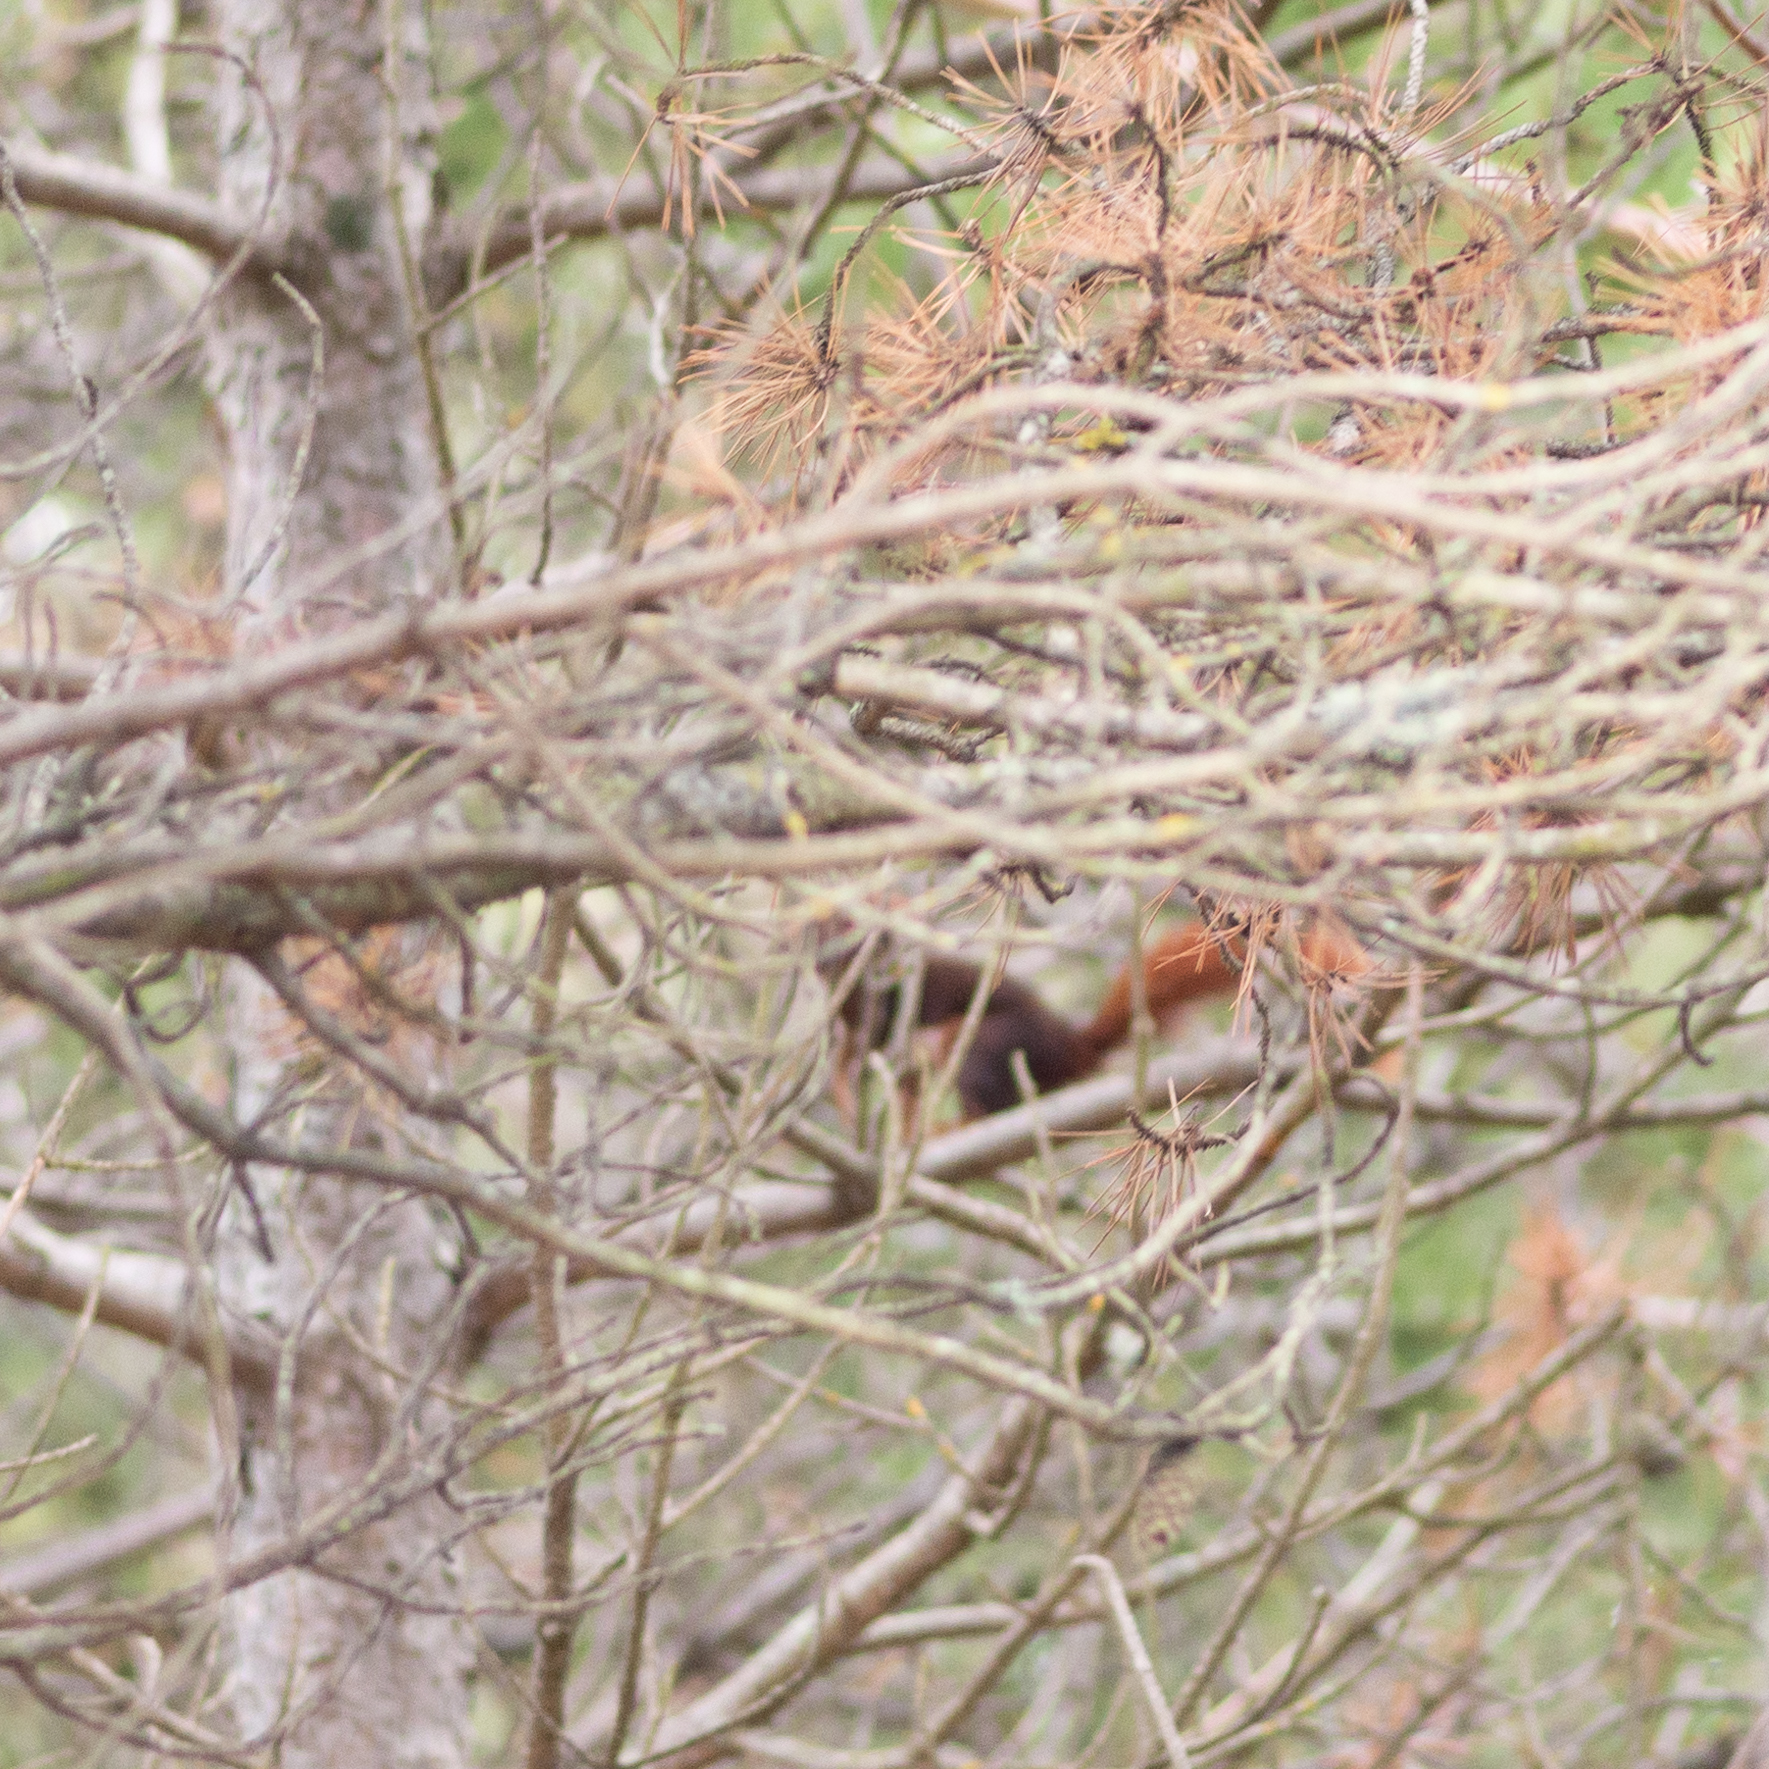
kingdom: Animalia
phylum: Chordata
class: Mammalia
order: Rodentia
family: Sciuridae
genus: Sciurus
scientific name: Sciurus vulgaris
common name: Eurasian red squirrel
